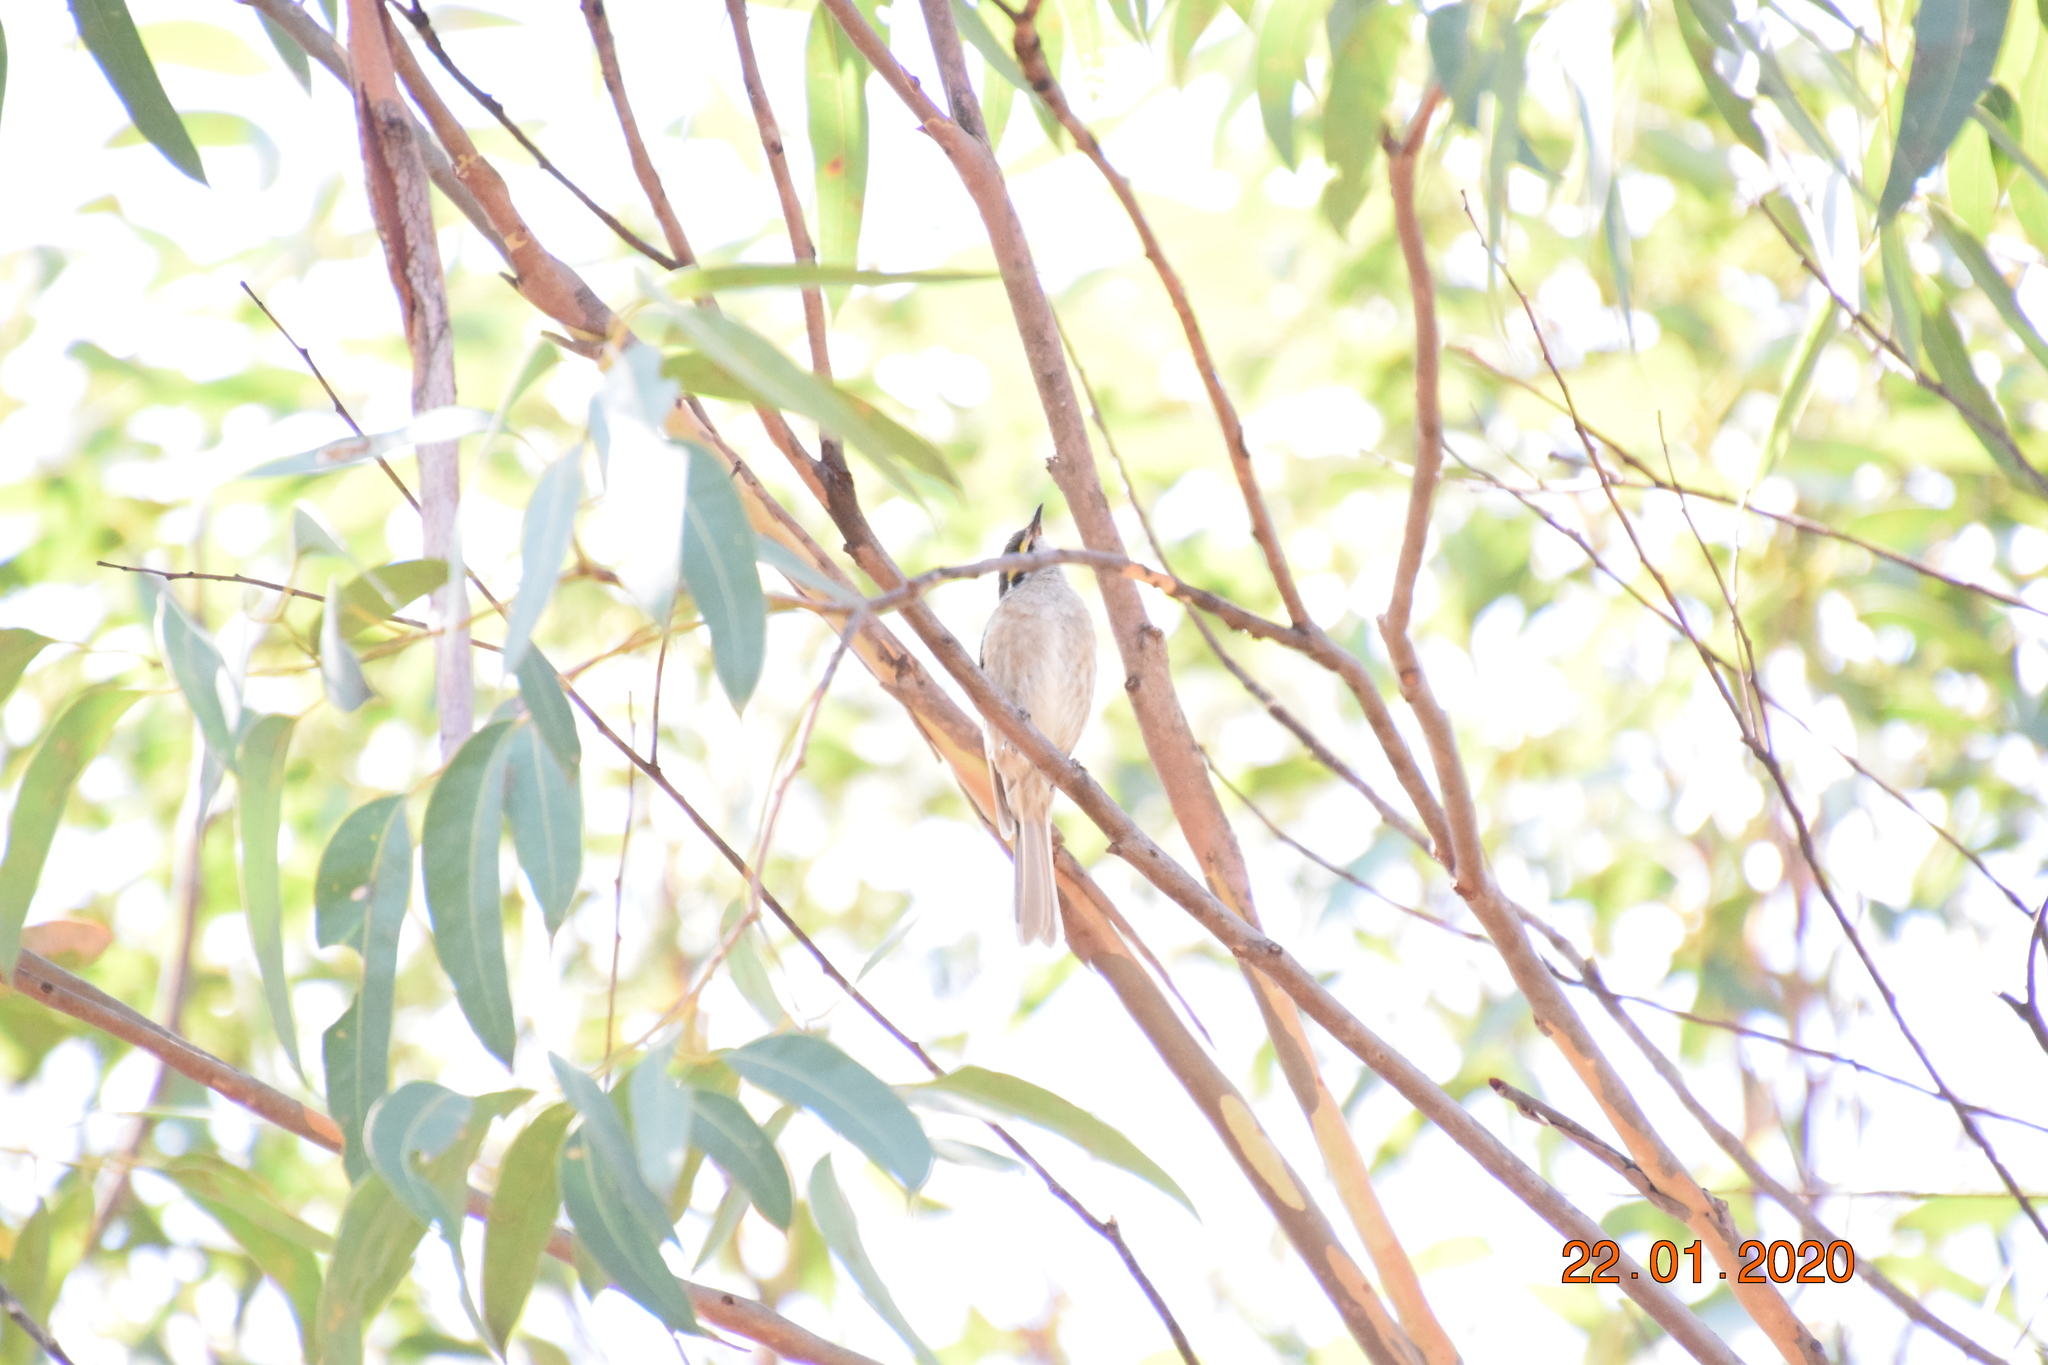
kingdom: Animalia
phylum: Chordata
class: Aves
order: Passeriformes
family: Meliphagidae
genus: Caligavis
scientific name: Caligavis chrysops
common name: Yellow-faced honeyeater
